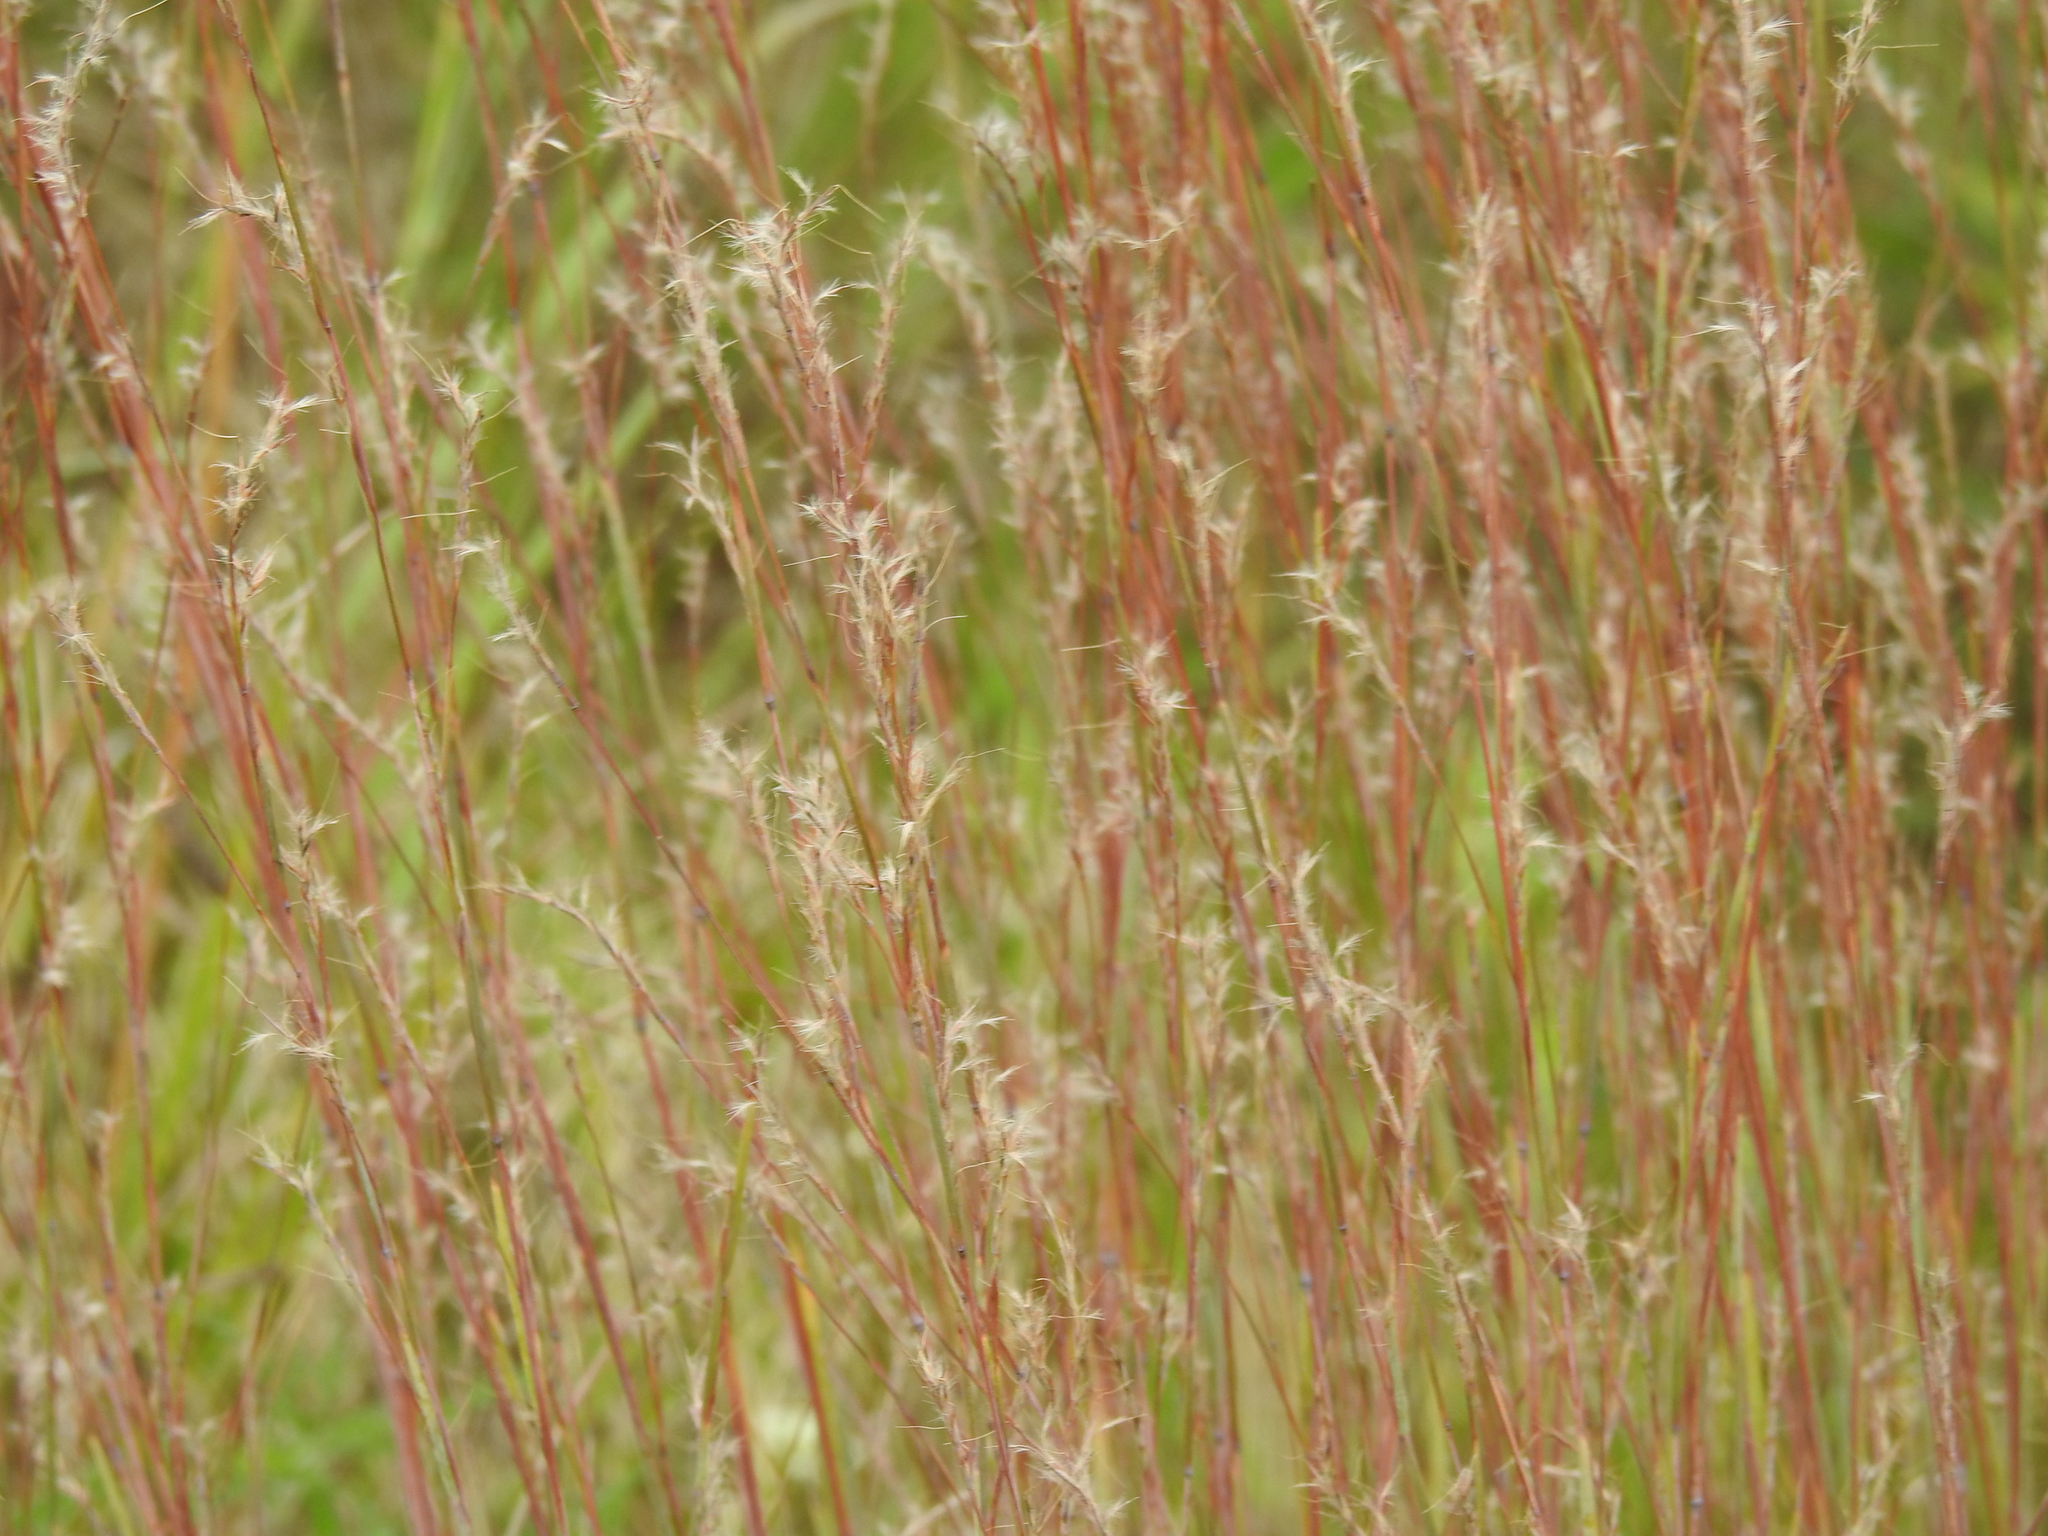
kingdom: Plantae
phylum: Tracheophyta
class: Liliopsida
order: Poales
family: Poaceae
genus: Schizachyrium
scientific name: Schizachyrium scoparium
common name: Little bluestem
